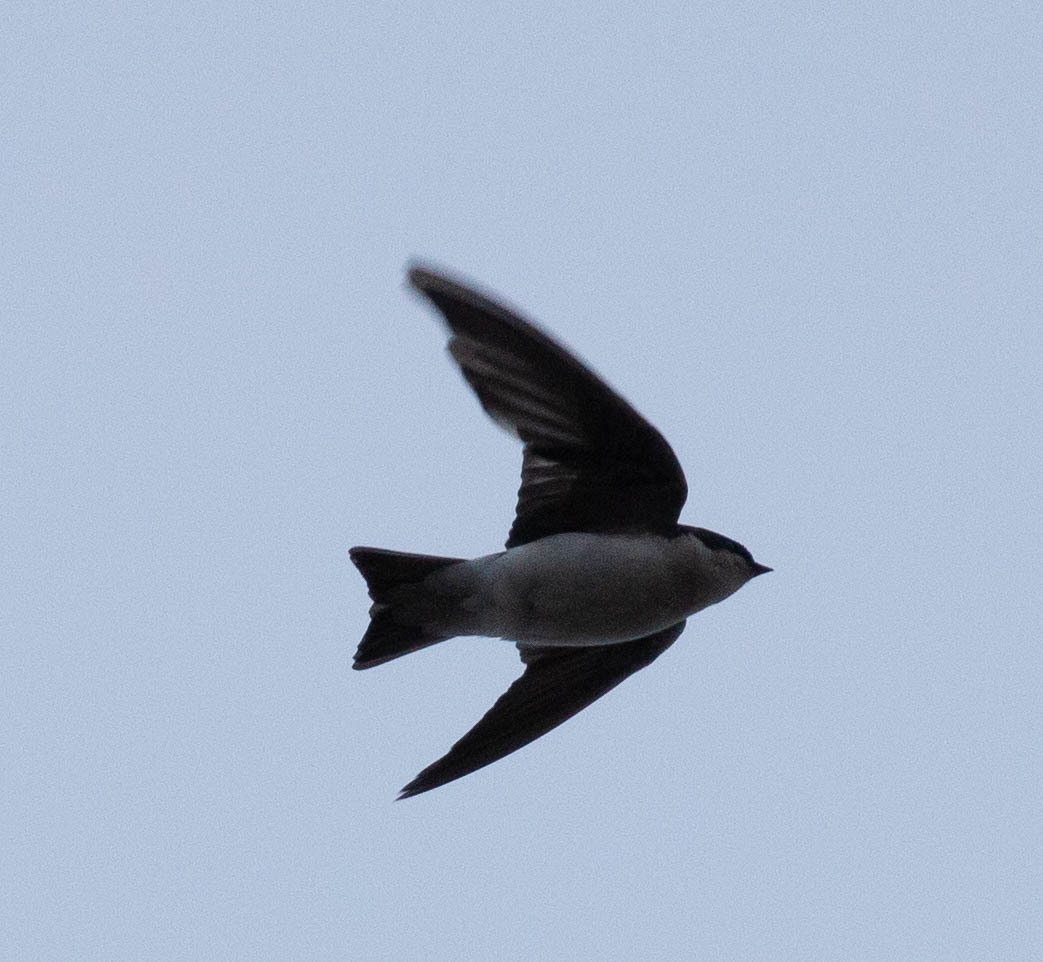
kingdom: Animalia
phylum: Chordata
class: Aves
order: Passeriformes
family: Hirundinidae
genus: Tachycineta
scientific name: Tachycineta bicolor
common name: Tree swallow
